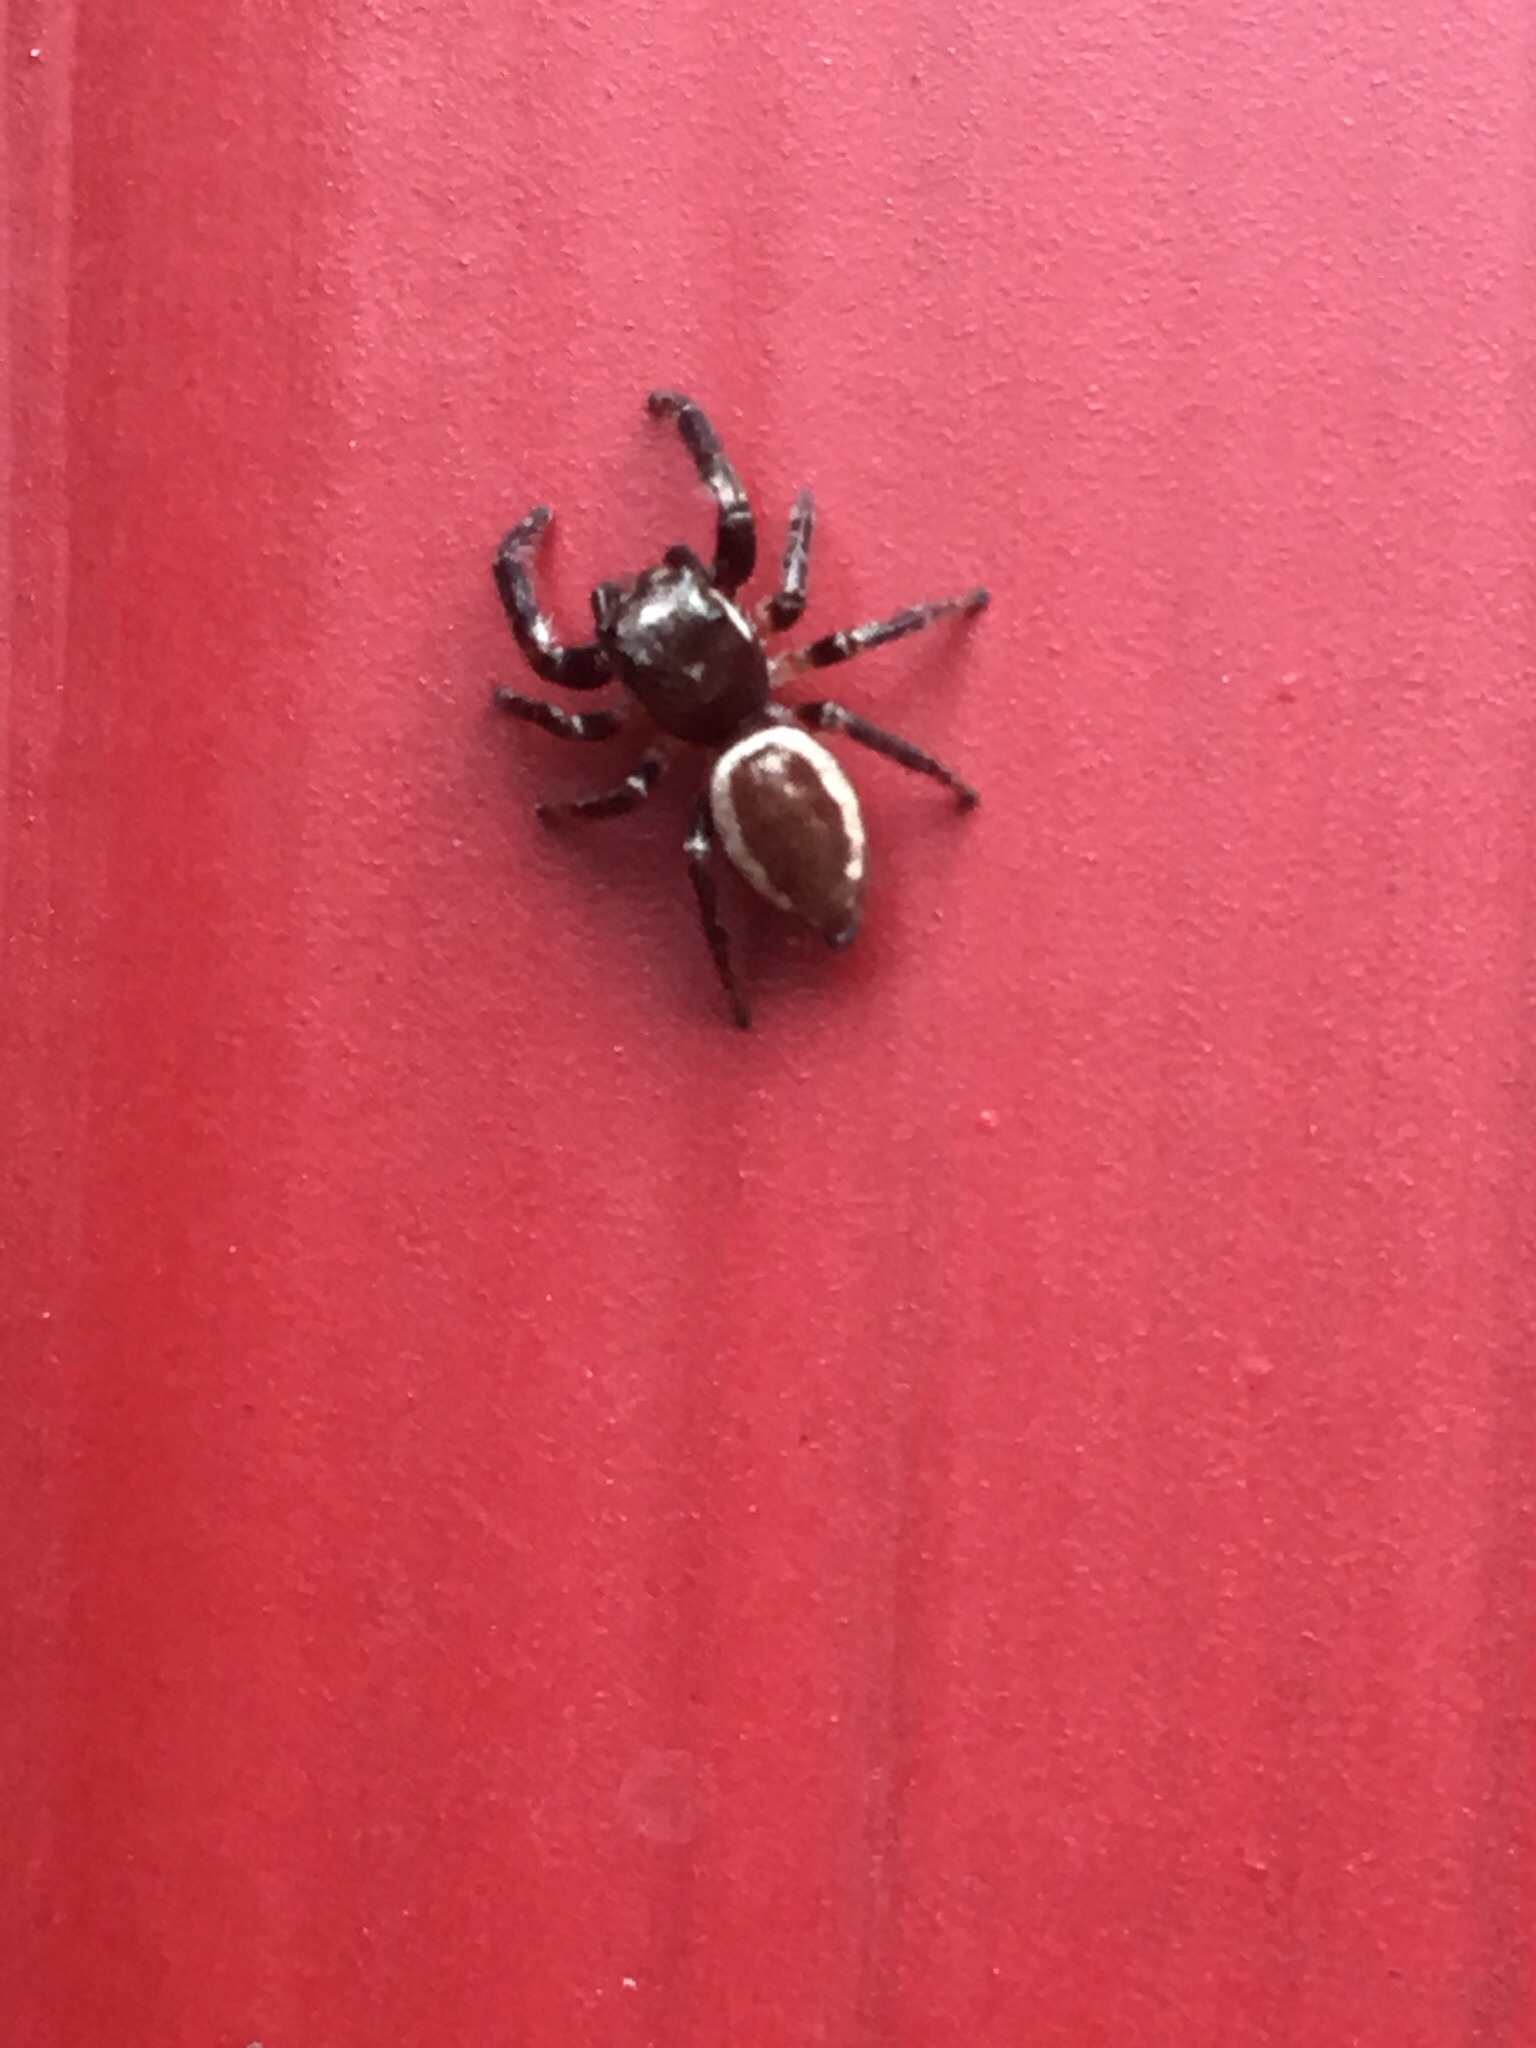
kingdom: Animalia
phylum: Arthropoda
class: Arachnida
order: Araneae
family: Salticidae
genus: Eris
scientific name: Eris militaris
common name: Bronze jumper
